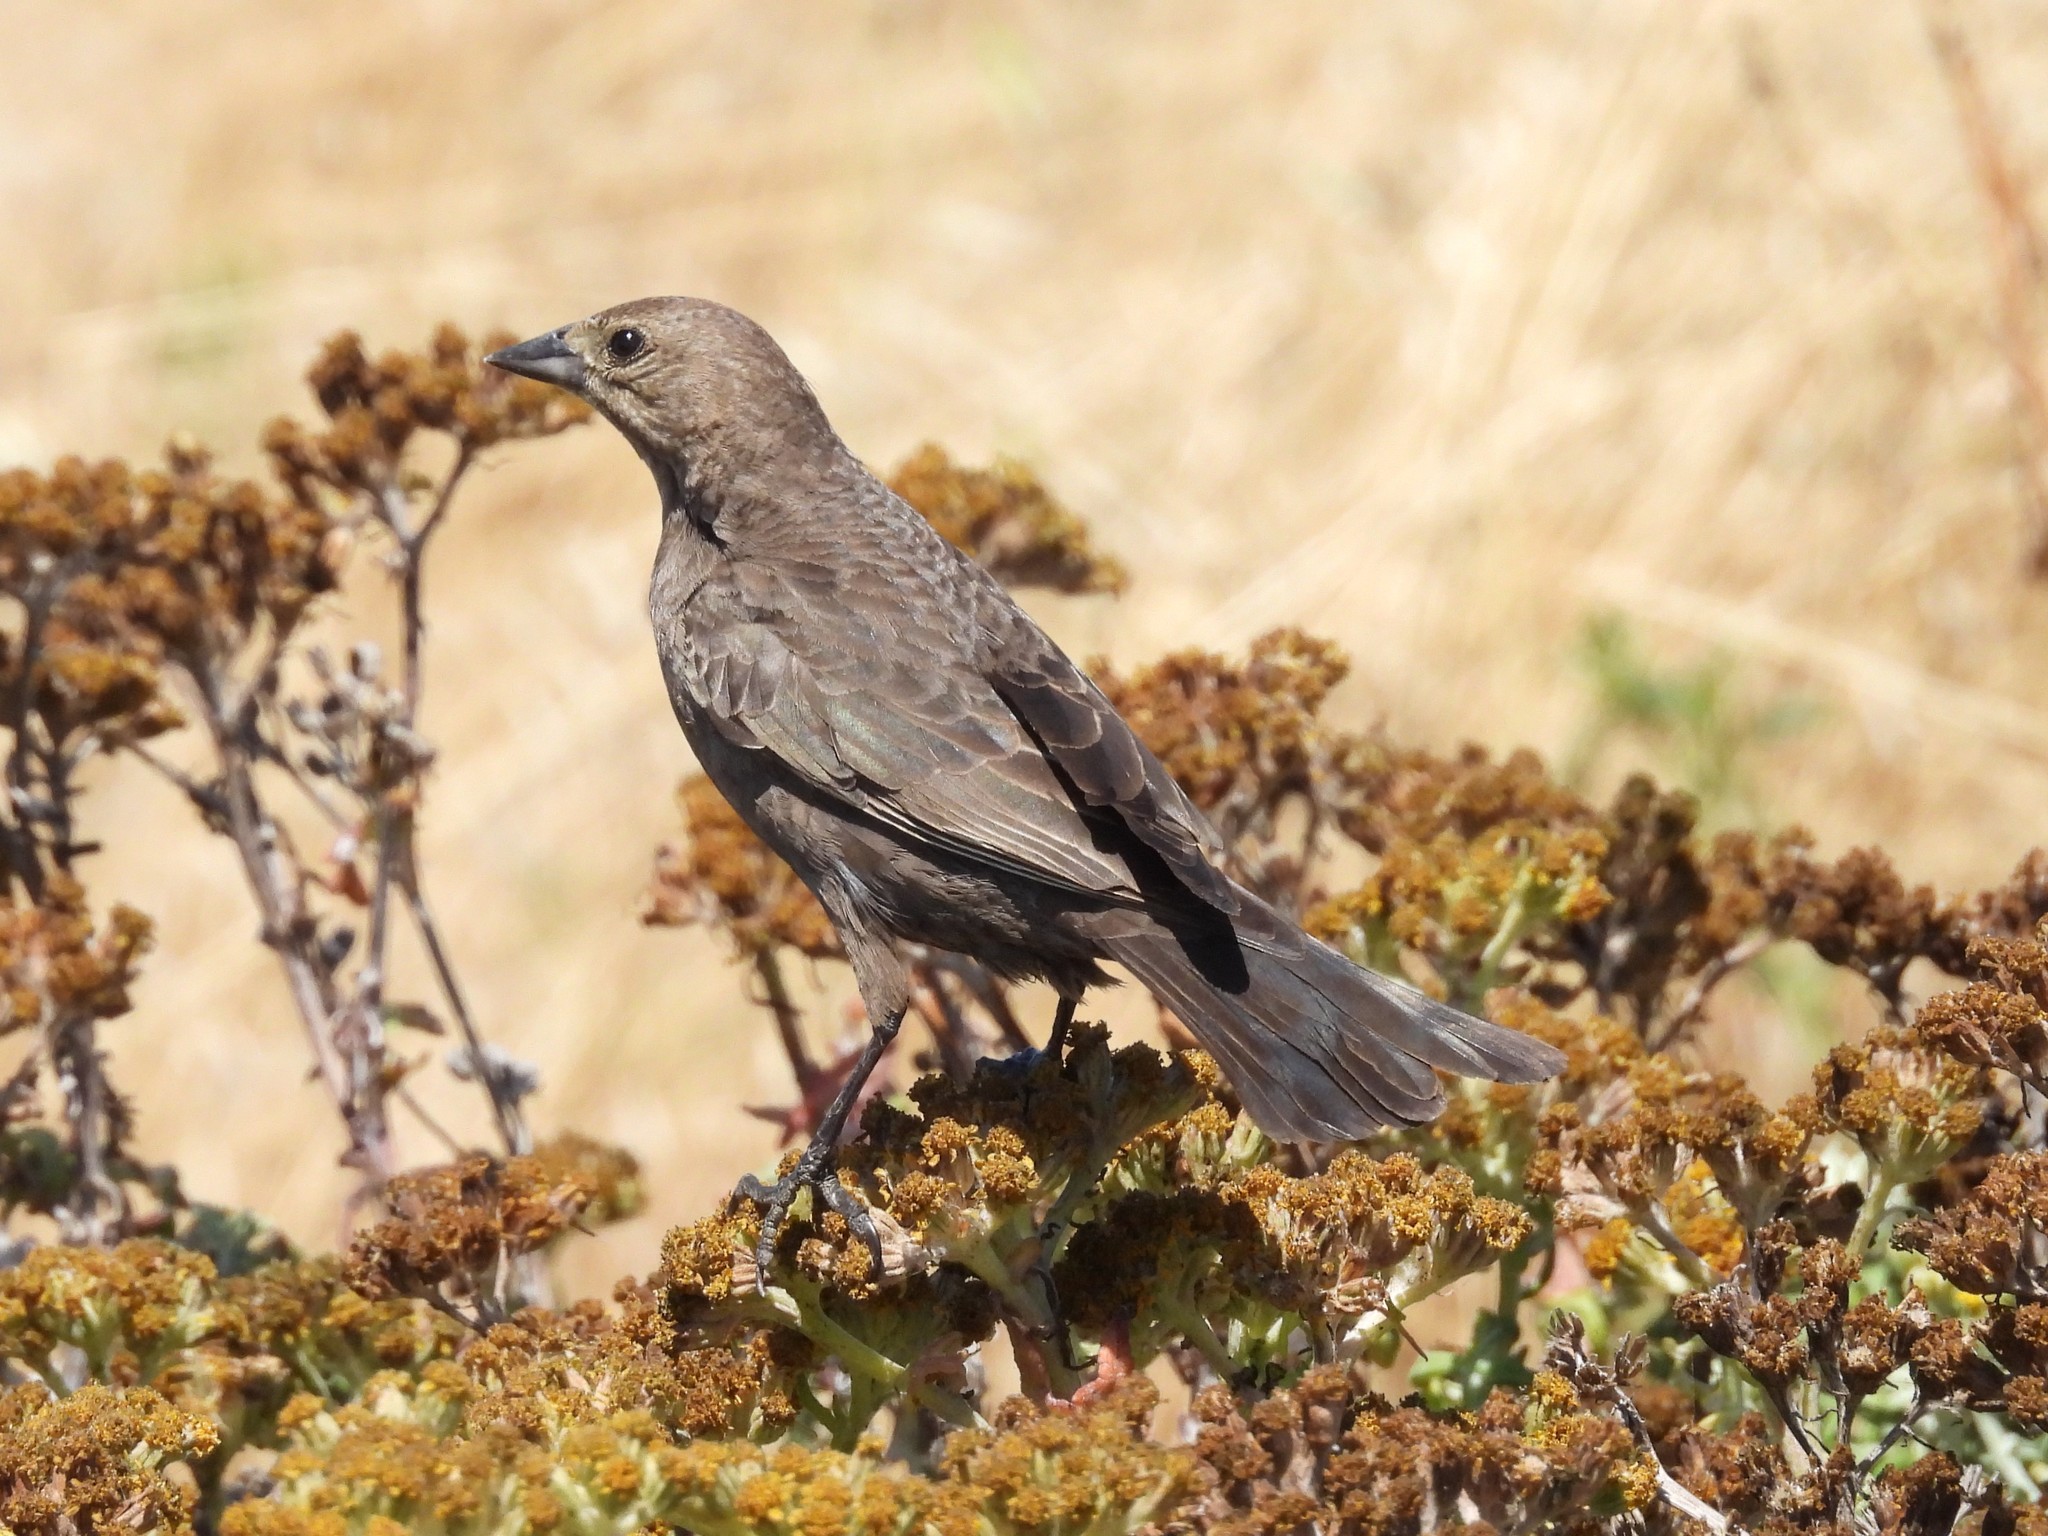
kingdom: Animalia
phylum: Chordata
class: Aves
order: Passeriformes
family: Icteridae
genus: Molothrus
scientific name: Molothrus ater
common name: Brown-headed cowbird
